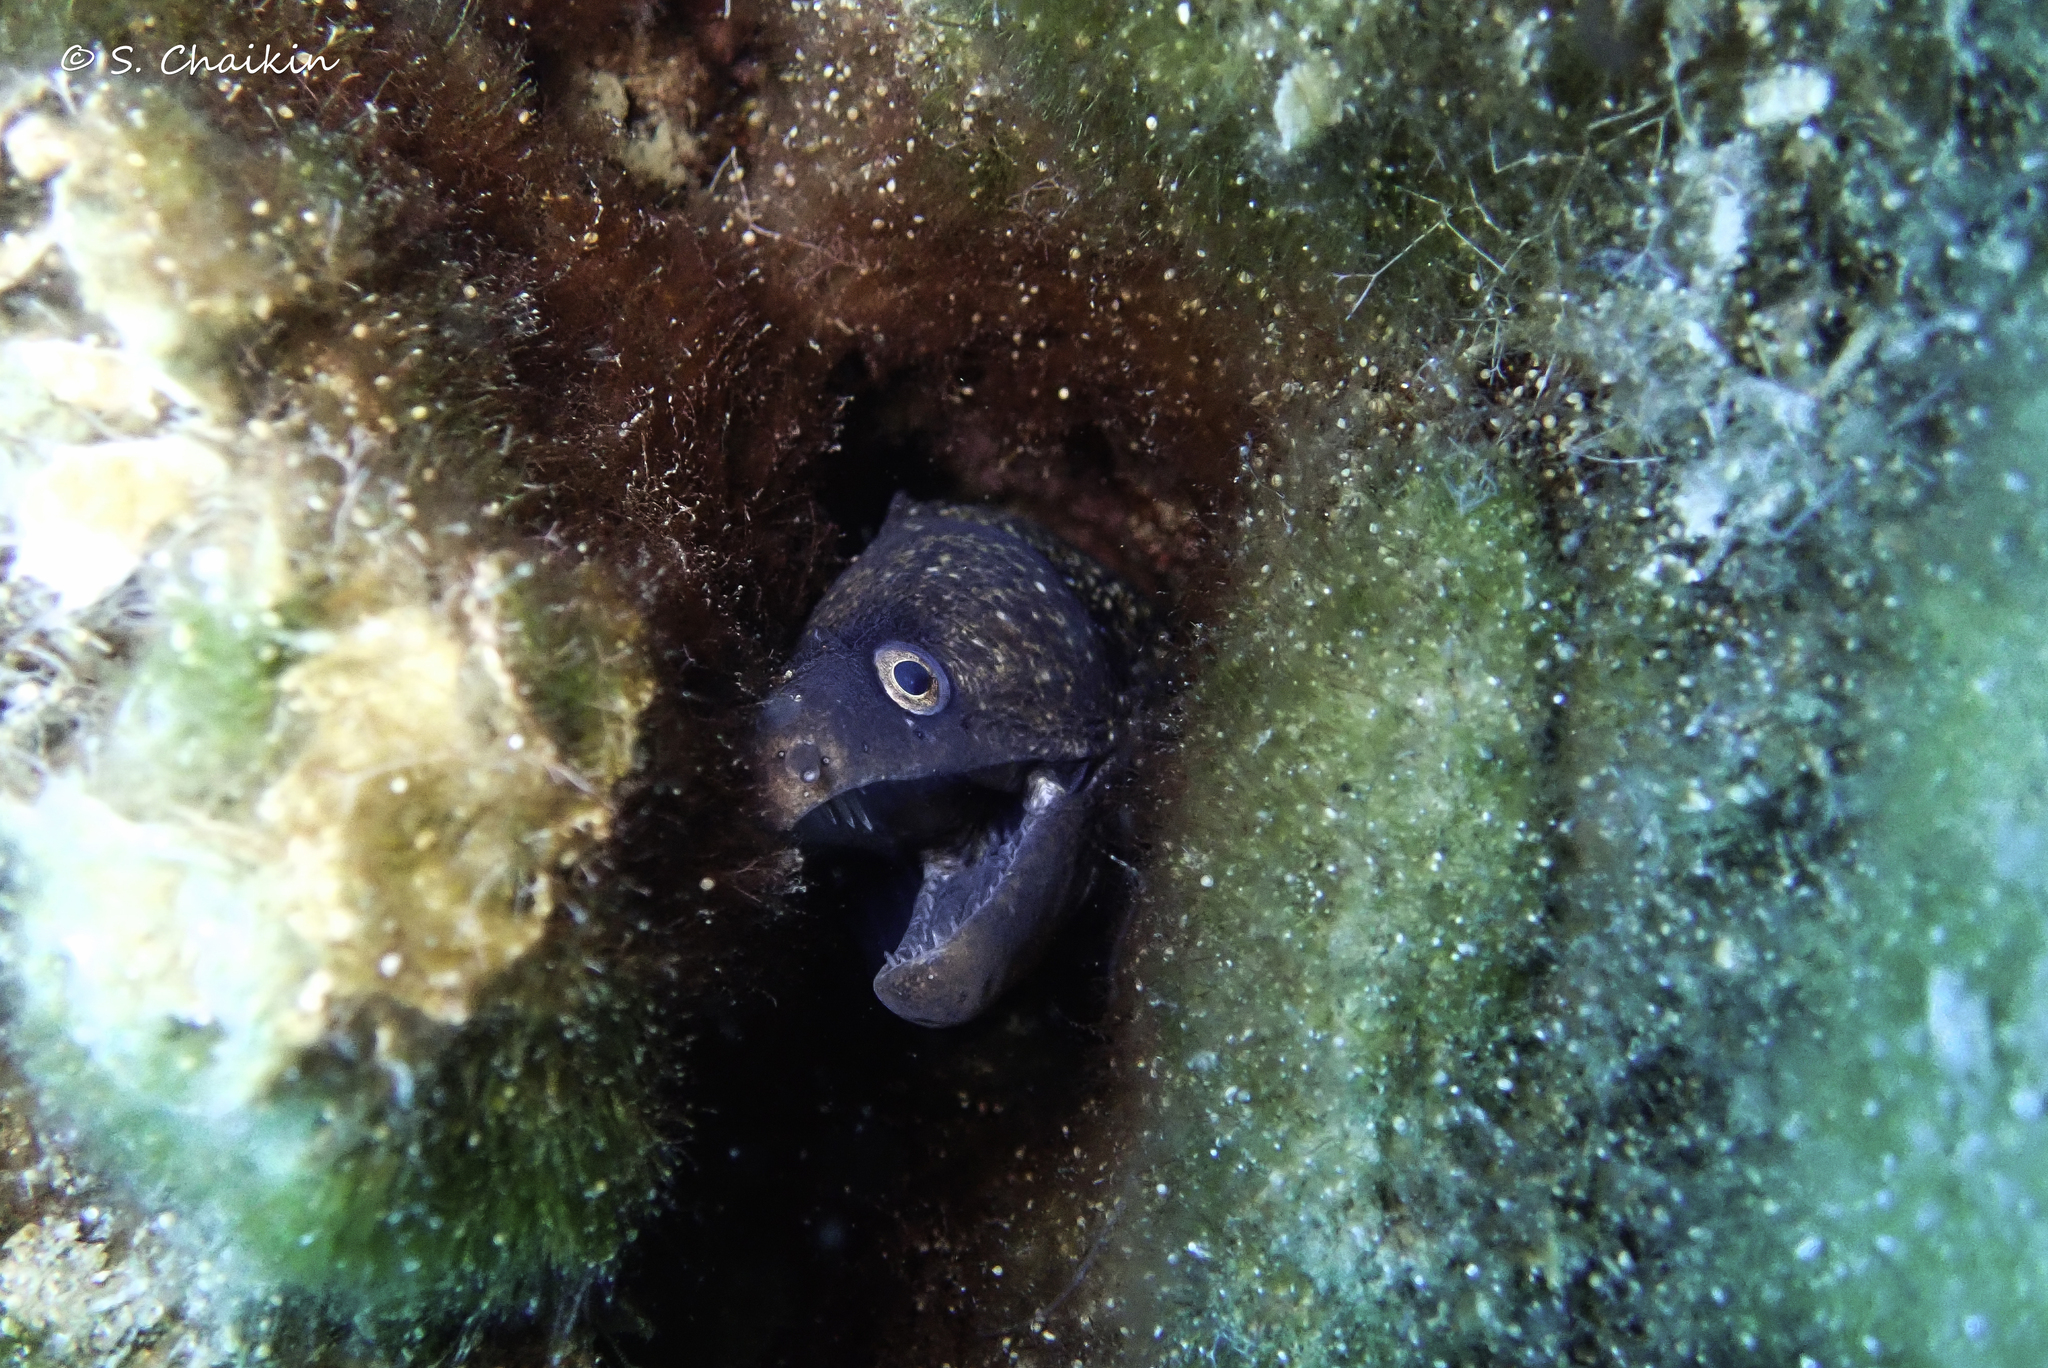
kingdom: Animalia
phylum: Chordata
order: Anguilliformes
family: Muraenidae
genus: Muraena
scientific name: Muraena helena
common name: Mediterranean moray
